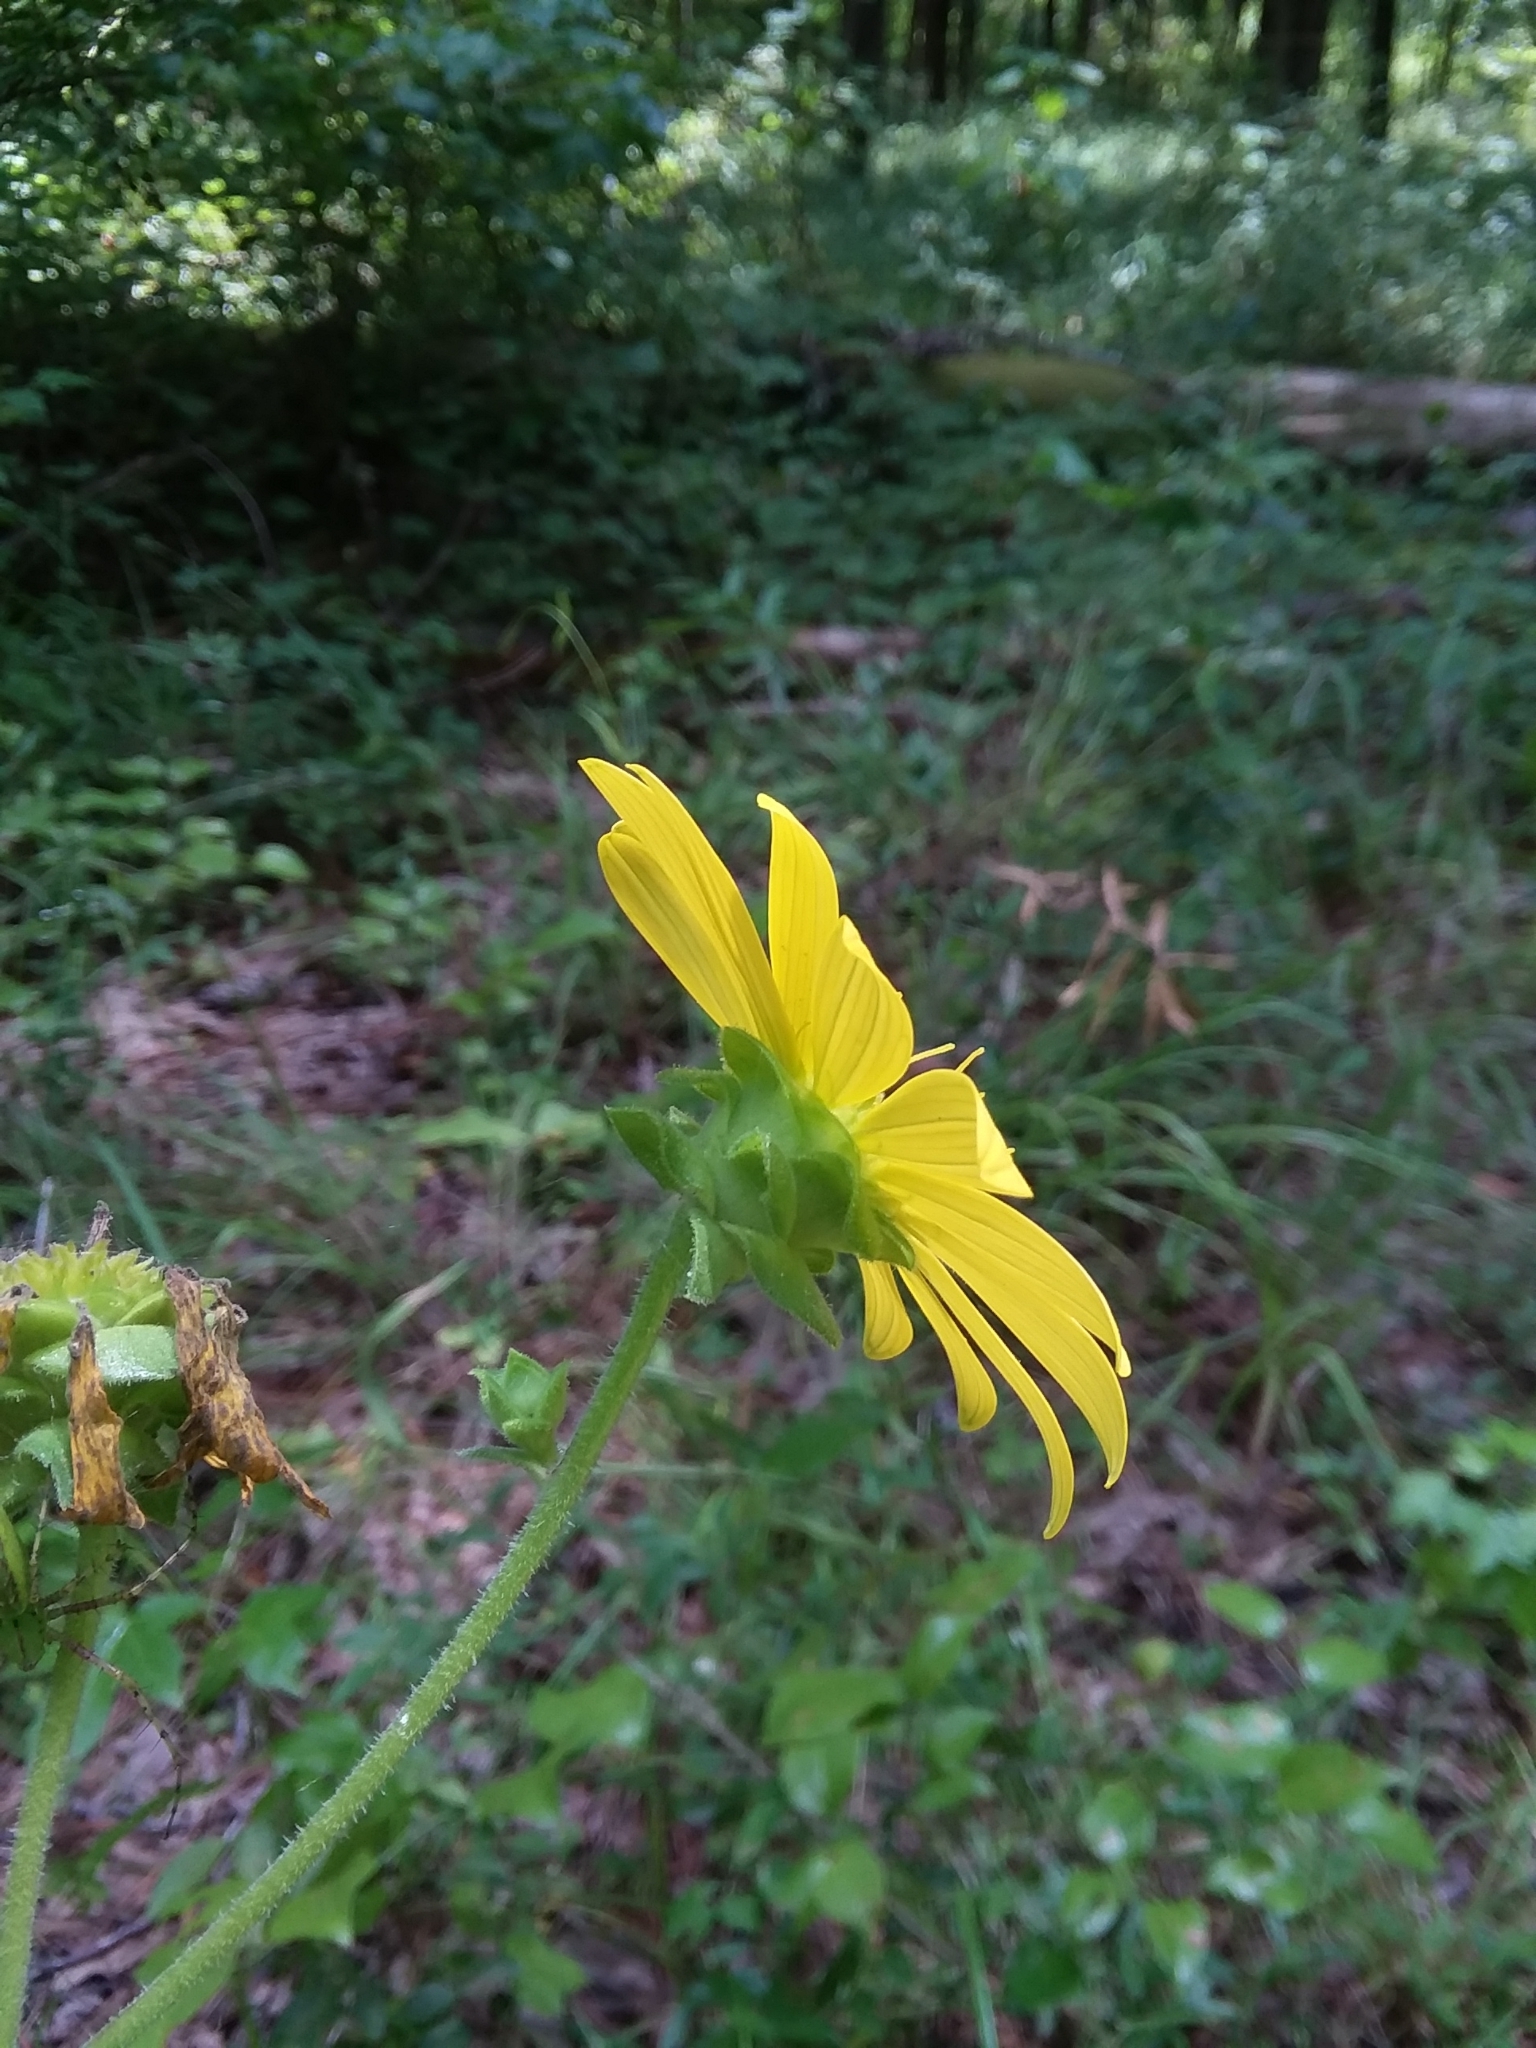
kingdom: Plantae
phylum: Tracheophyta
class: Magnoliopsida
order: Asterales
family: Asteraceae
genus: Silphium
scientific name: Silphium integrifolium
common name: Whole-leaf rosinweed
